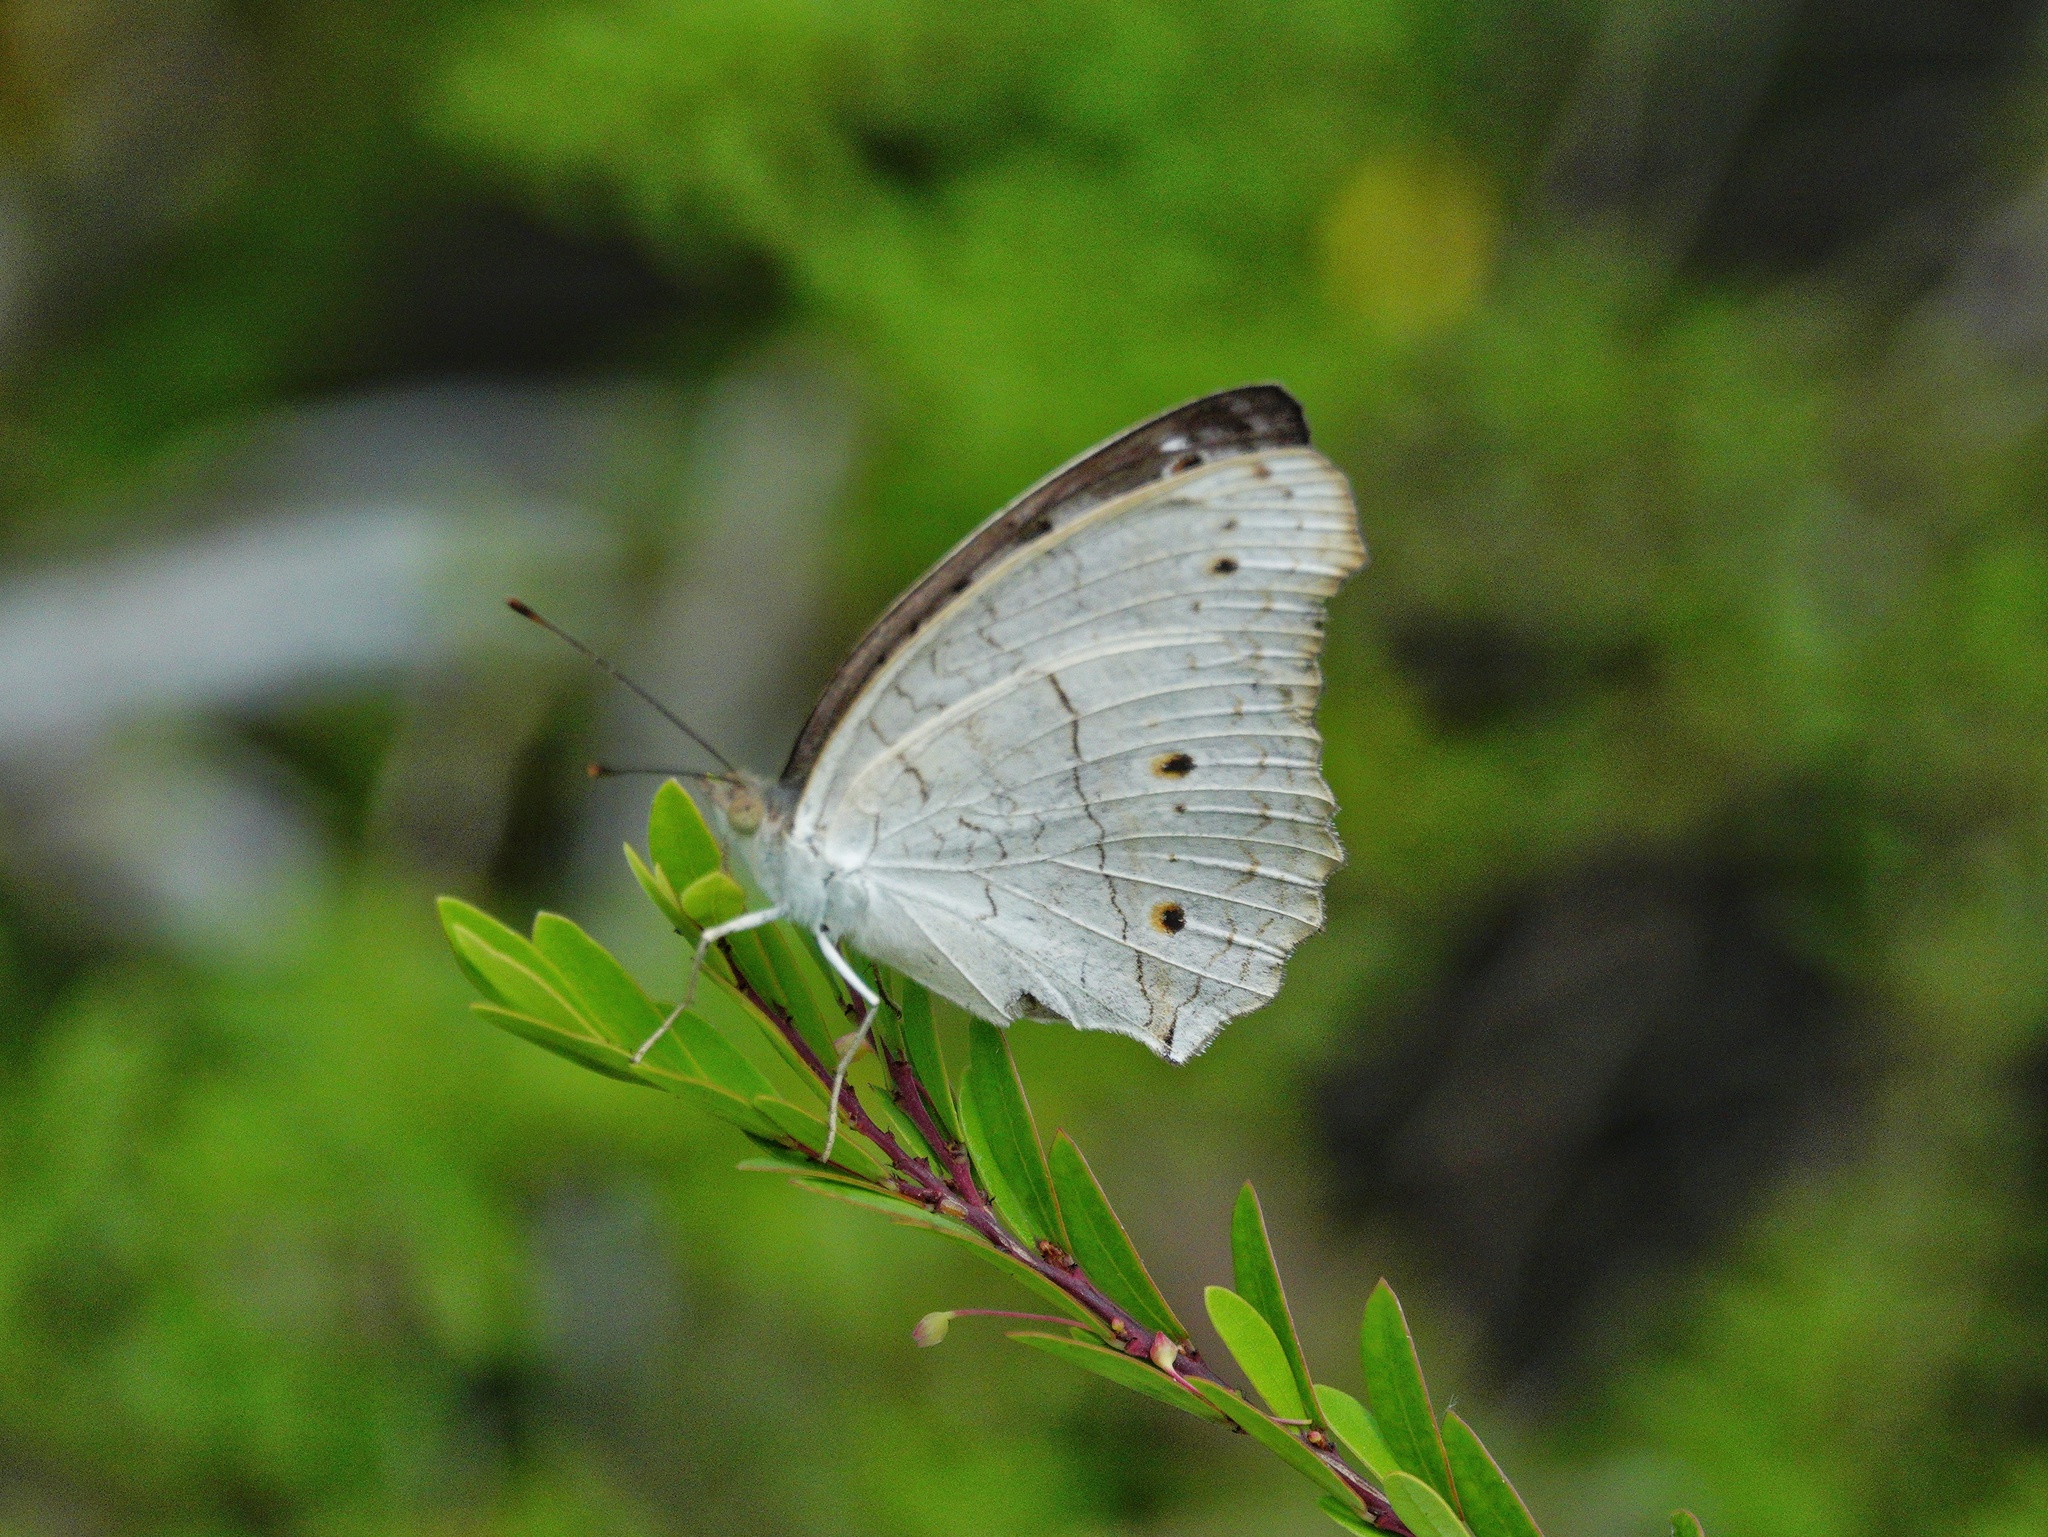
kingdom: Animalia
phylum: Arthropoda
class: Insecta
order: Lepidoptera
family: Nymphalidae
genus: Junonia
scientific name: Junonia atlites
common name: Grey pansy
